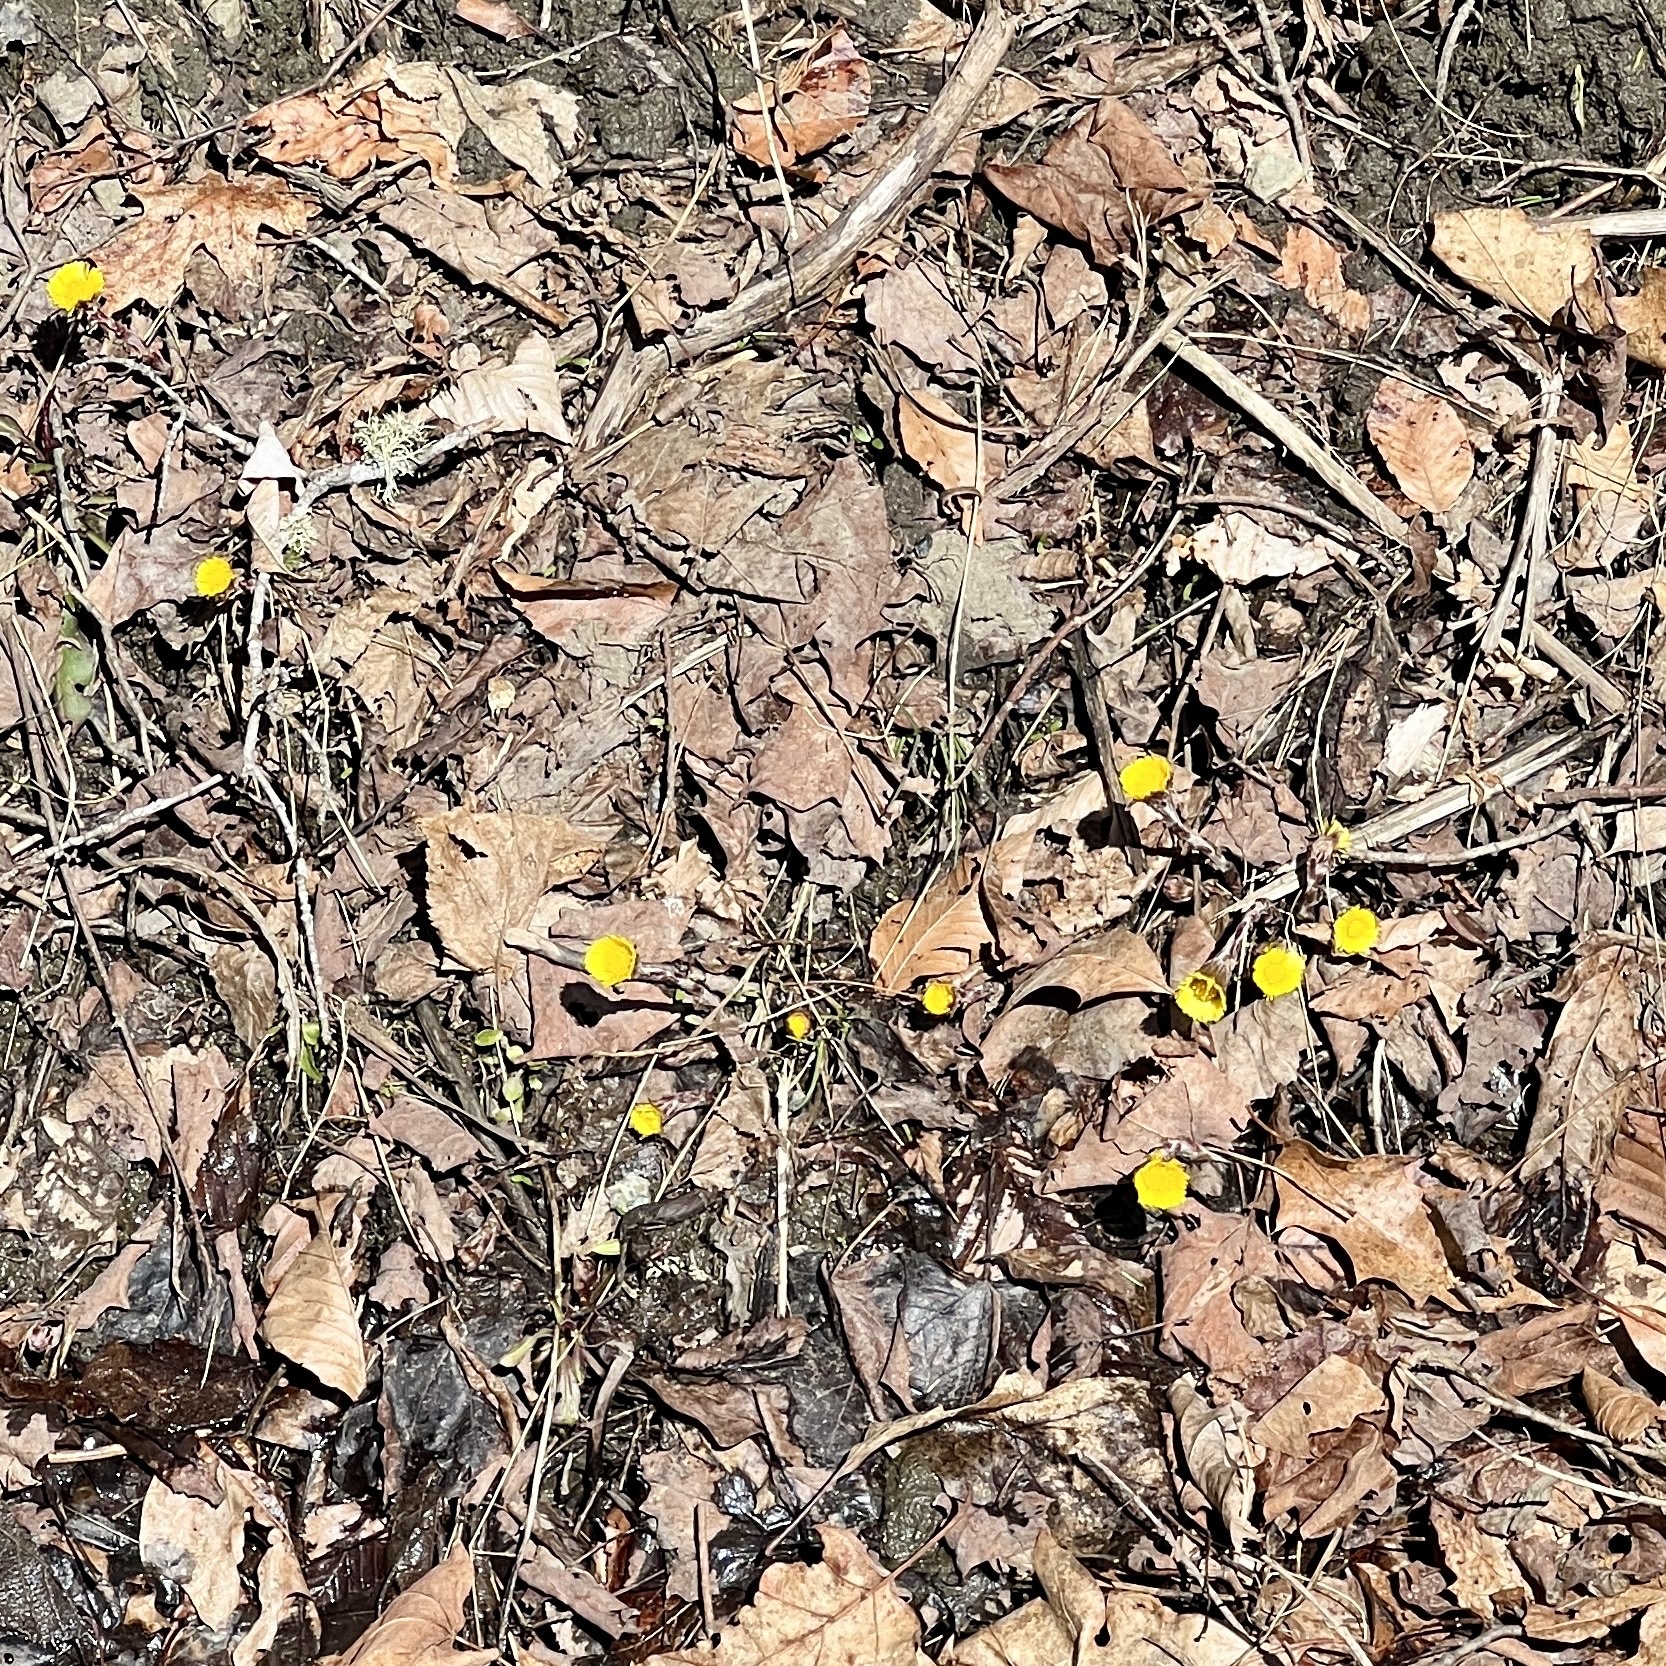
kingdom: Plantae
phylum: Tracheophyta
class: Magnoliopsida
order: Asterales
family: Asteraceae
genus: Tussilago
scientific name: Tussilago farfara
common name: Coltsfoot
